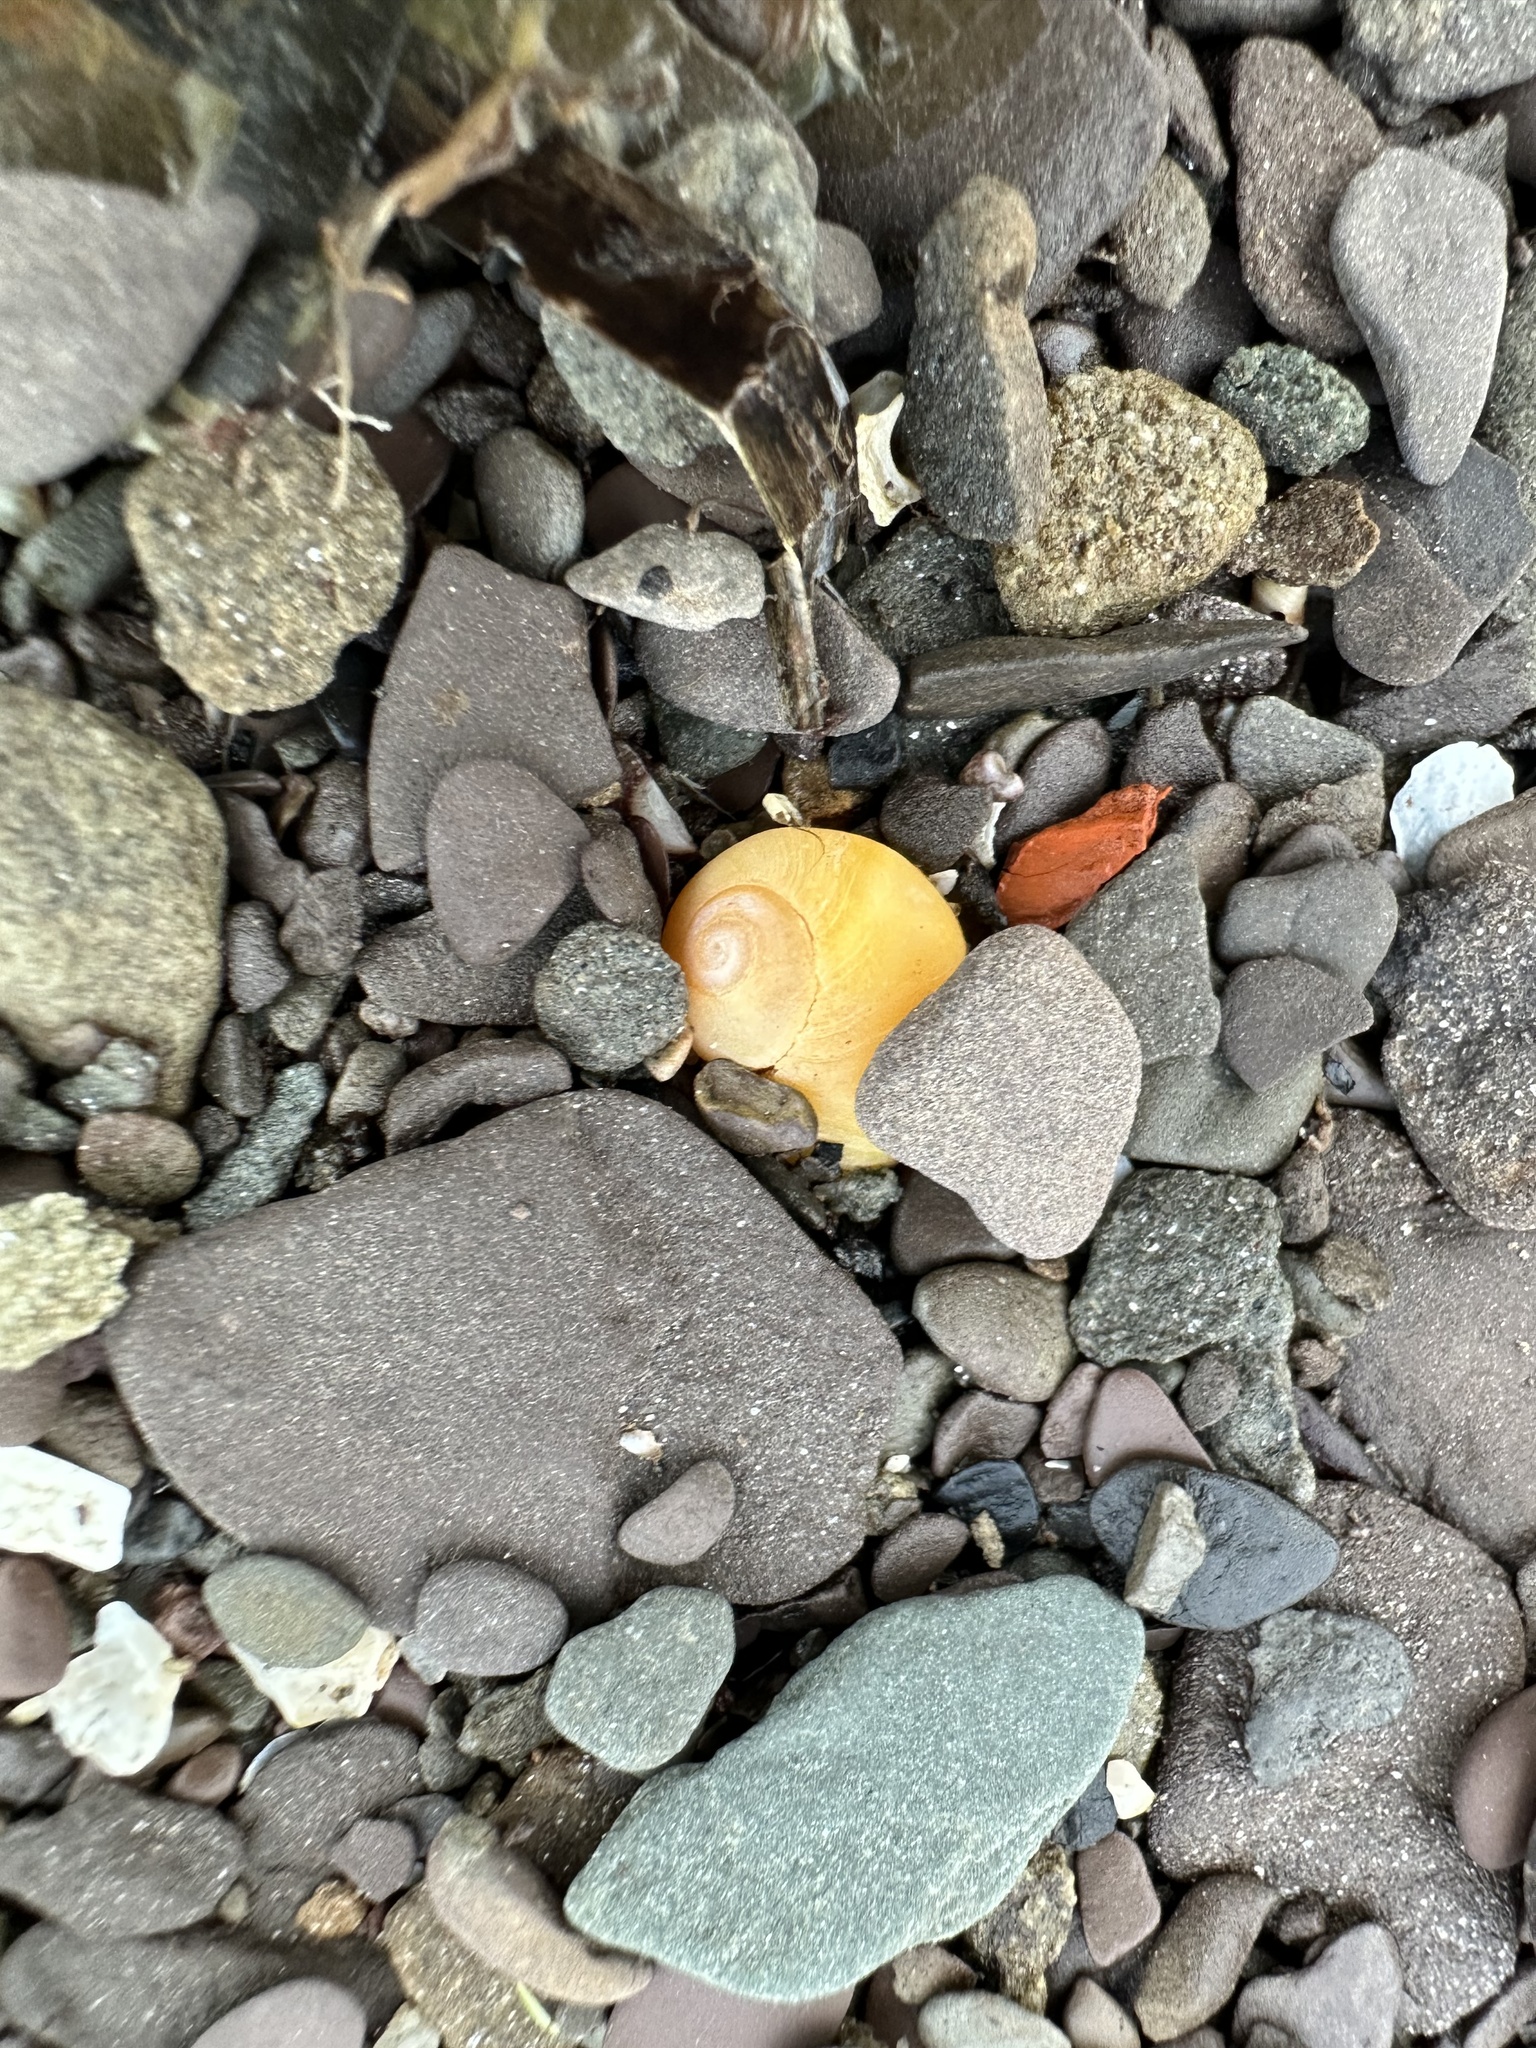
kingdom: Animalia
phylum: Mollusca
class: Gastropoda
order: Littorinimorpha
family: Littorinidae
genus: Littorina
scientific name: Littorina obtusata
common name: Flat periwinkle
